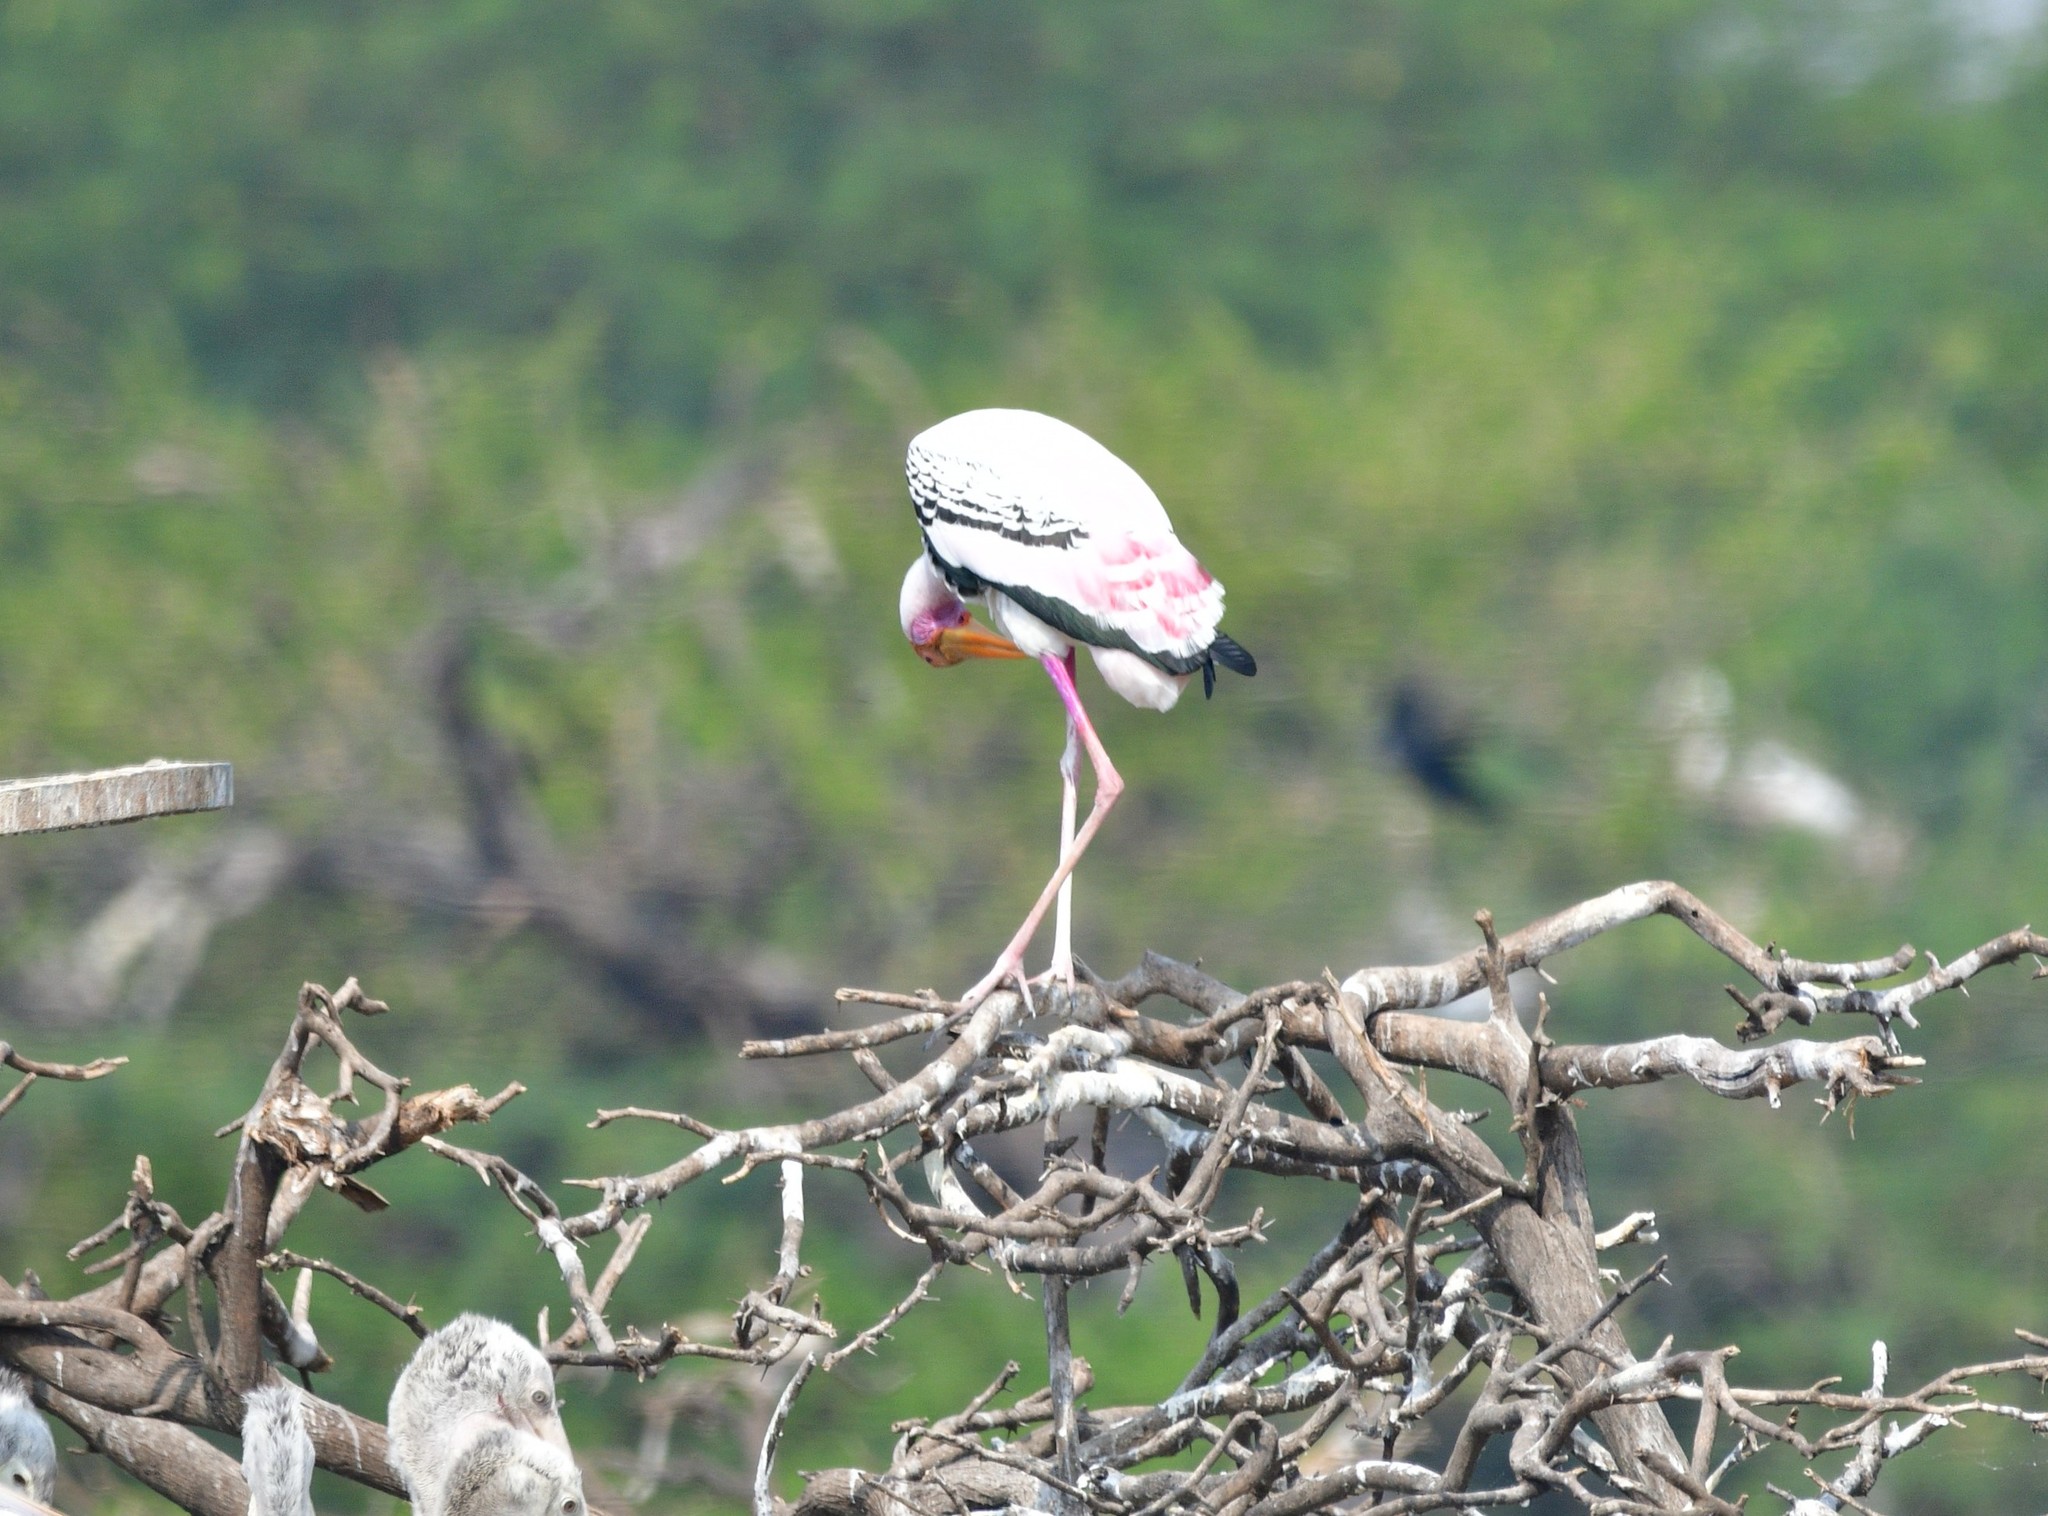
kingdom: Animalia
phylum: Chordata
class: Aves
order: Ciconiiformes
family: Ciconiidae
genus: Mycteria
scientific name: Mycteria leucocephala
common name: Painted stork
